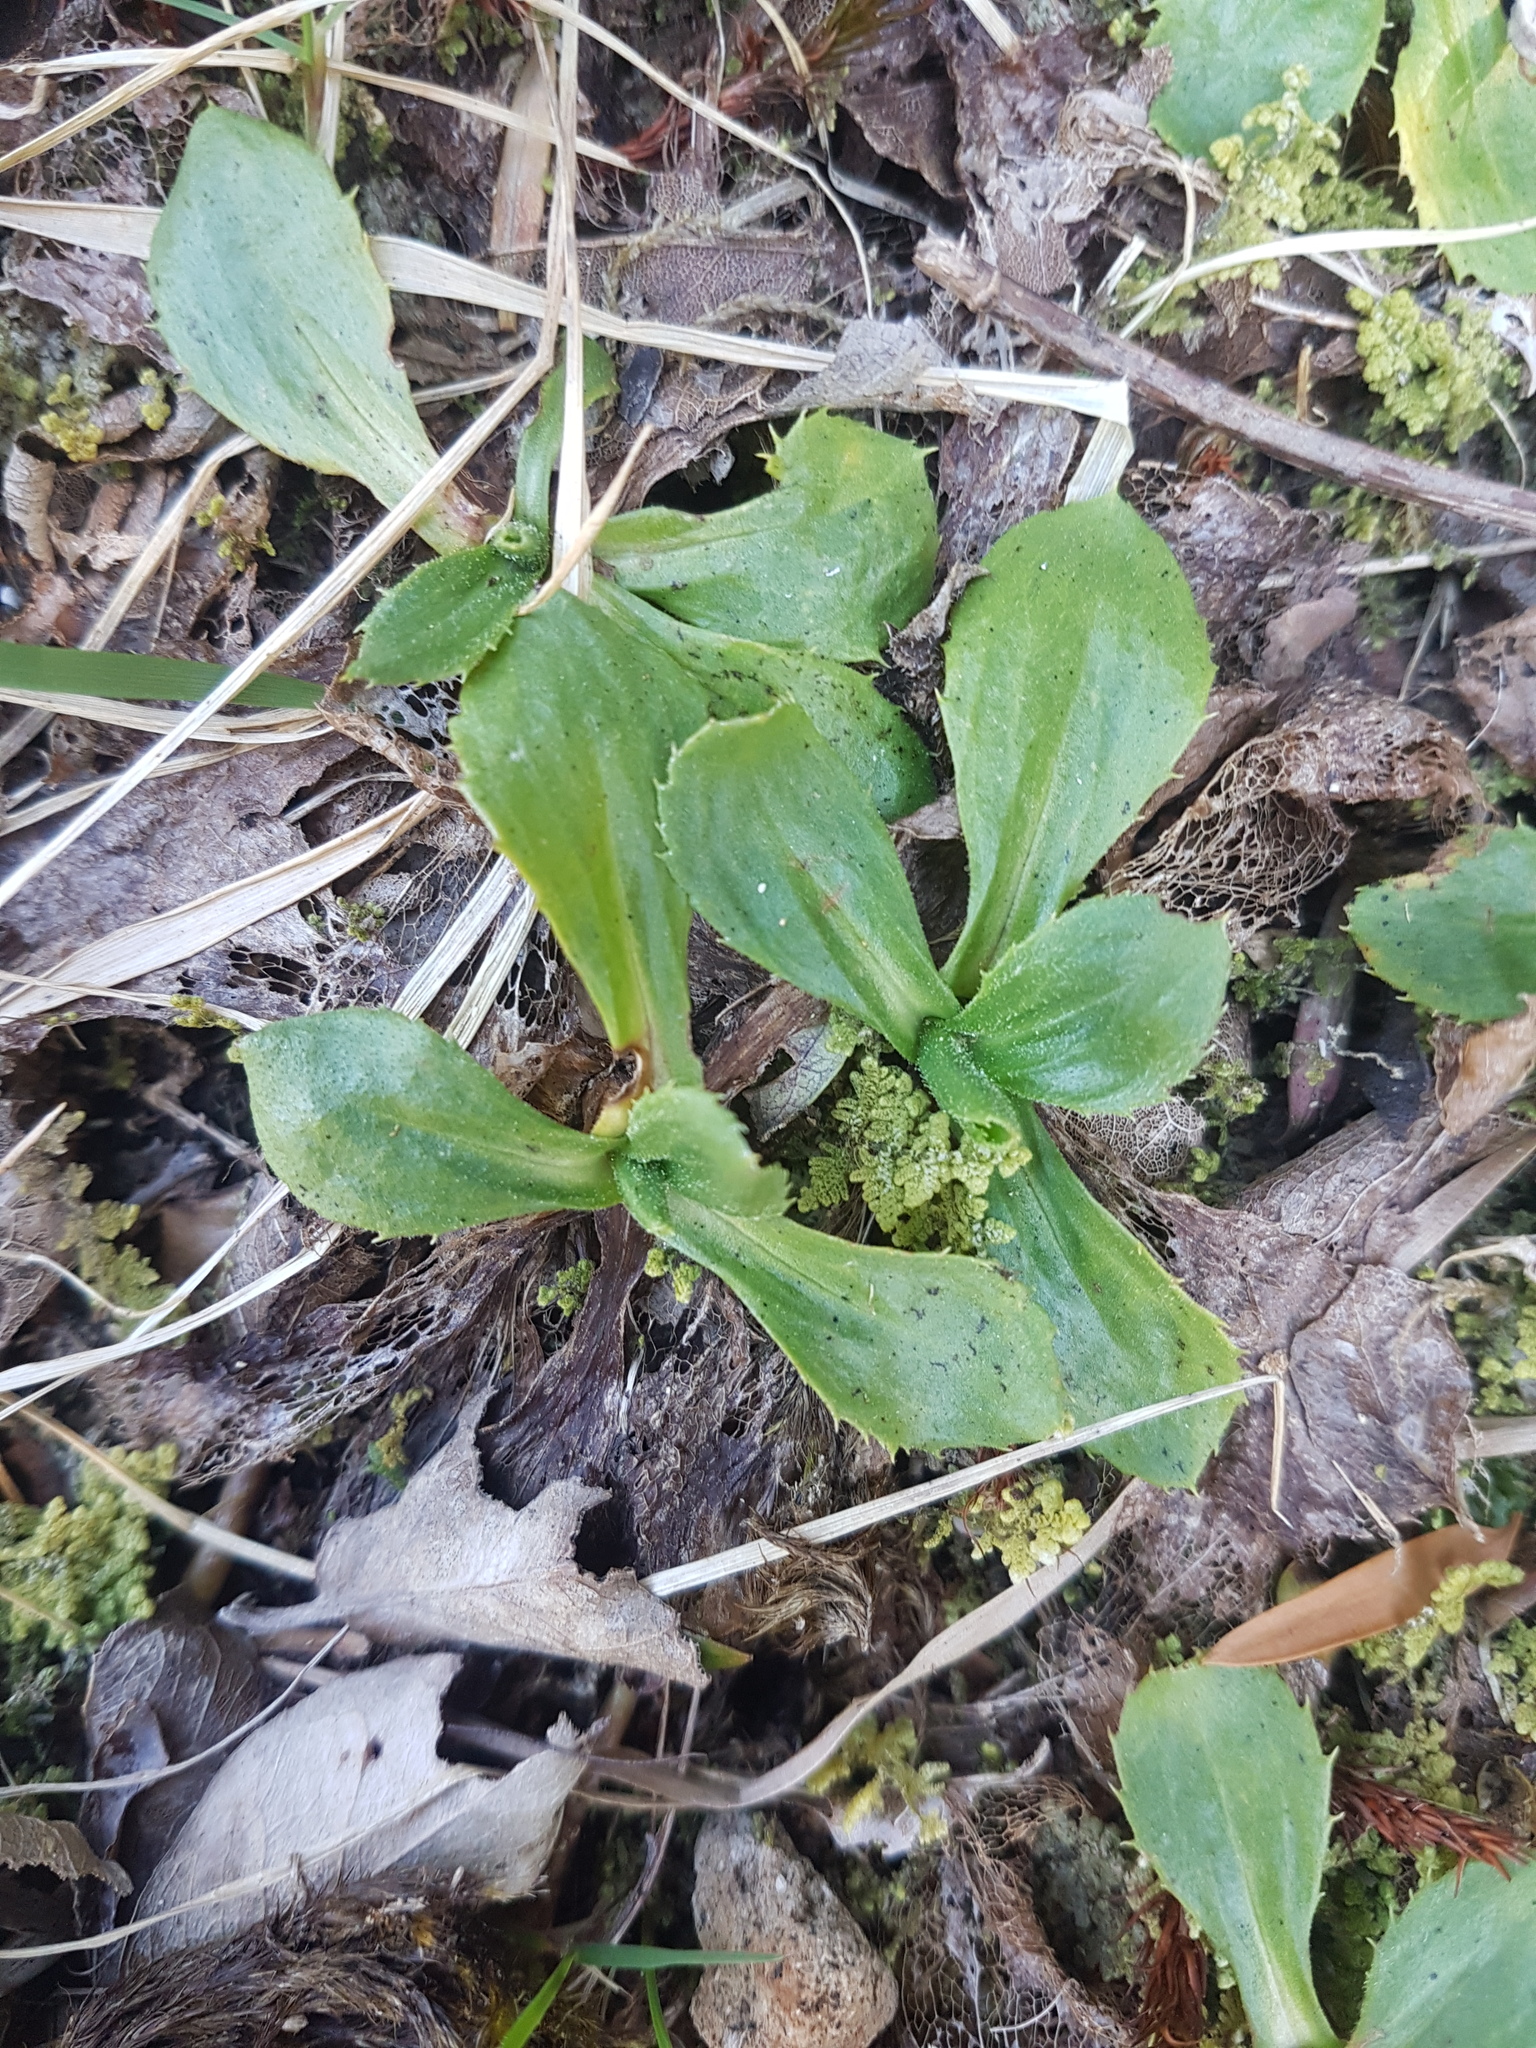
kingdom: Plantae
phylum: Tracheophyta
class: Magnoliopsida
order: Asterales
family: Asteraceae
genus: Celmisia
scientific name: Celmisia glandulosa
